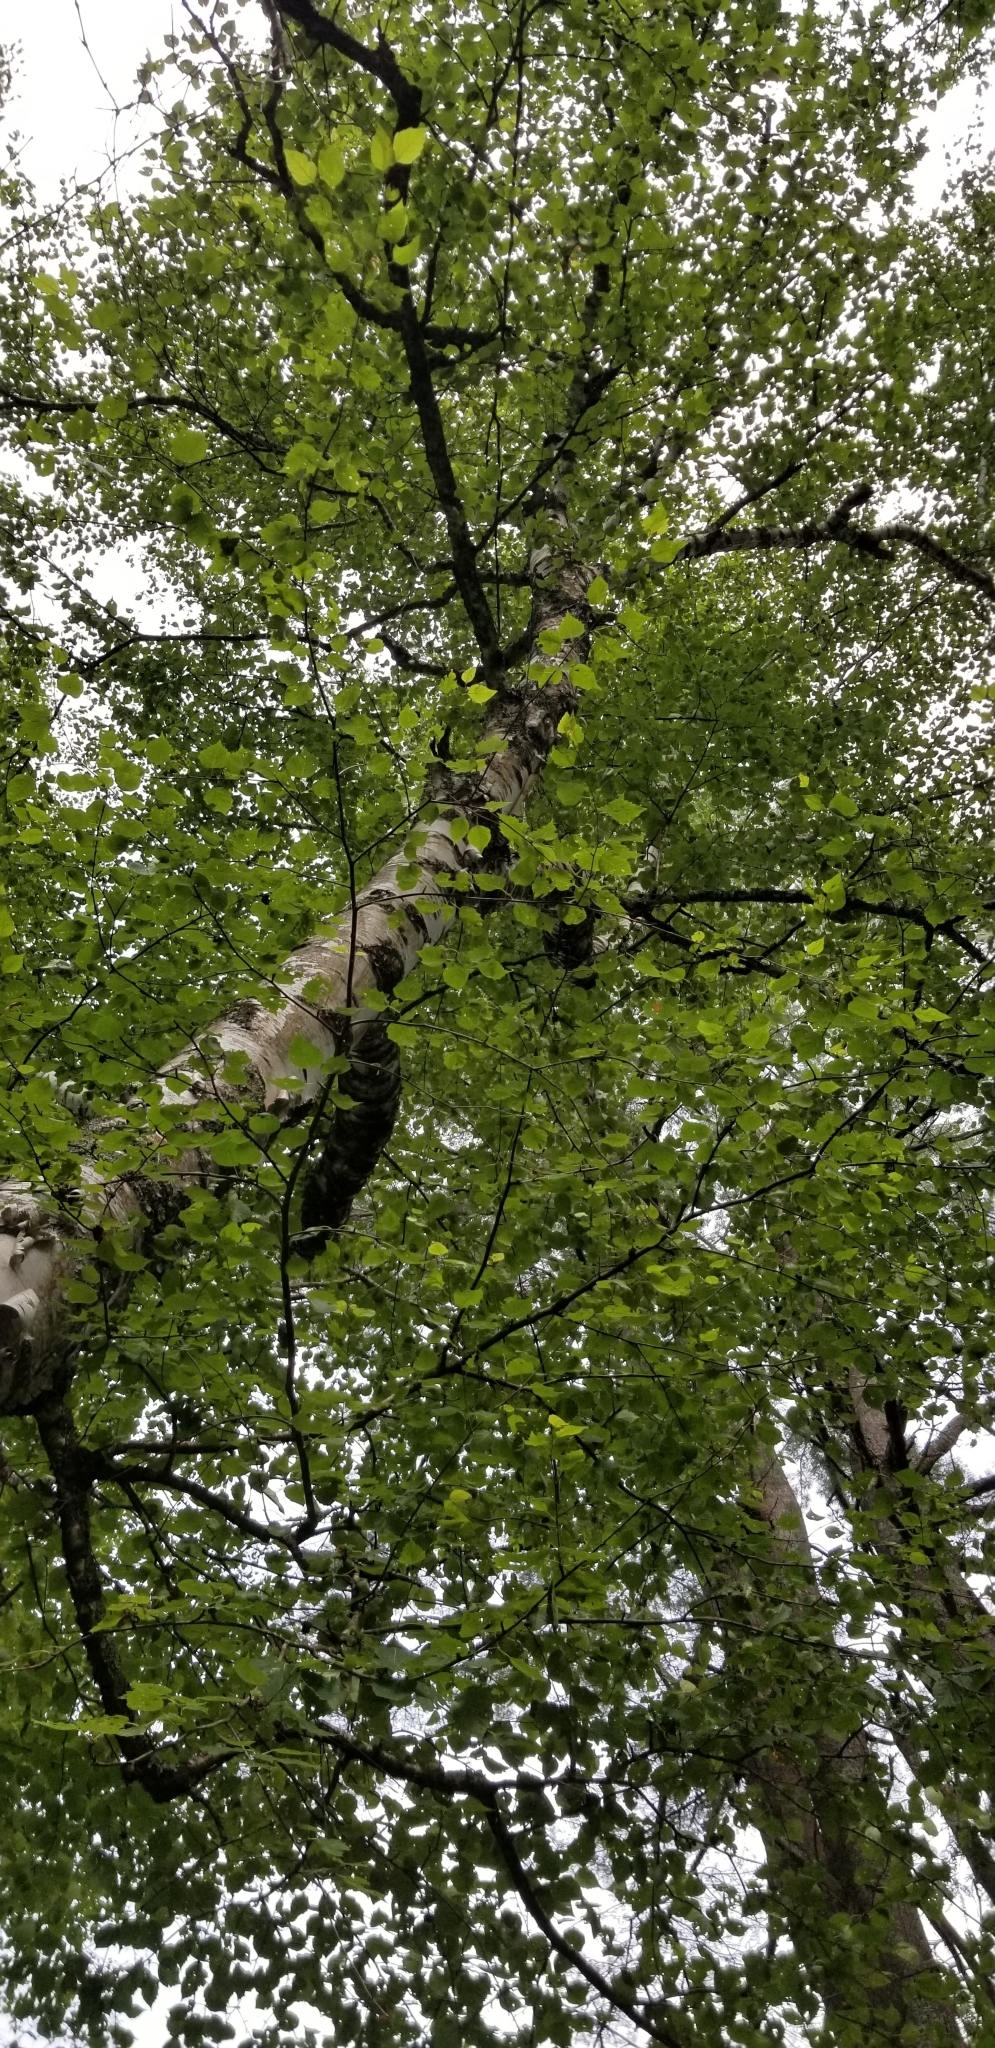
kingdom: Plantae
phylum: Tracheophyta
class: Magnoliopsida
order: Fagales
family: Betulaceae
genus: Betula
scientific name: Betula papyrifera
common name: Paper birch
